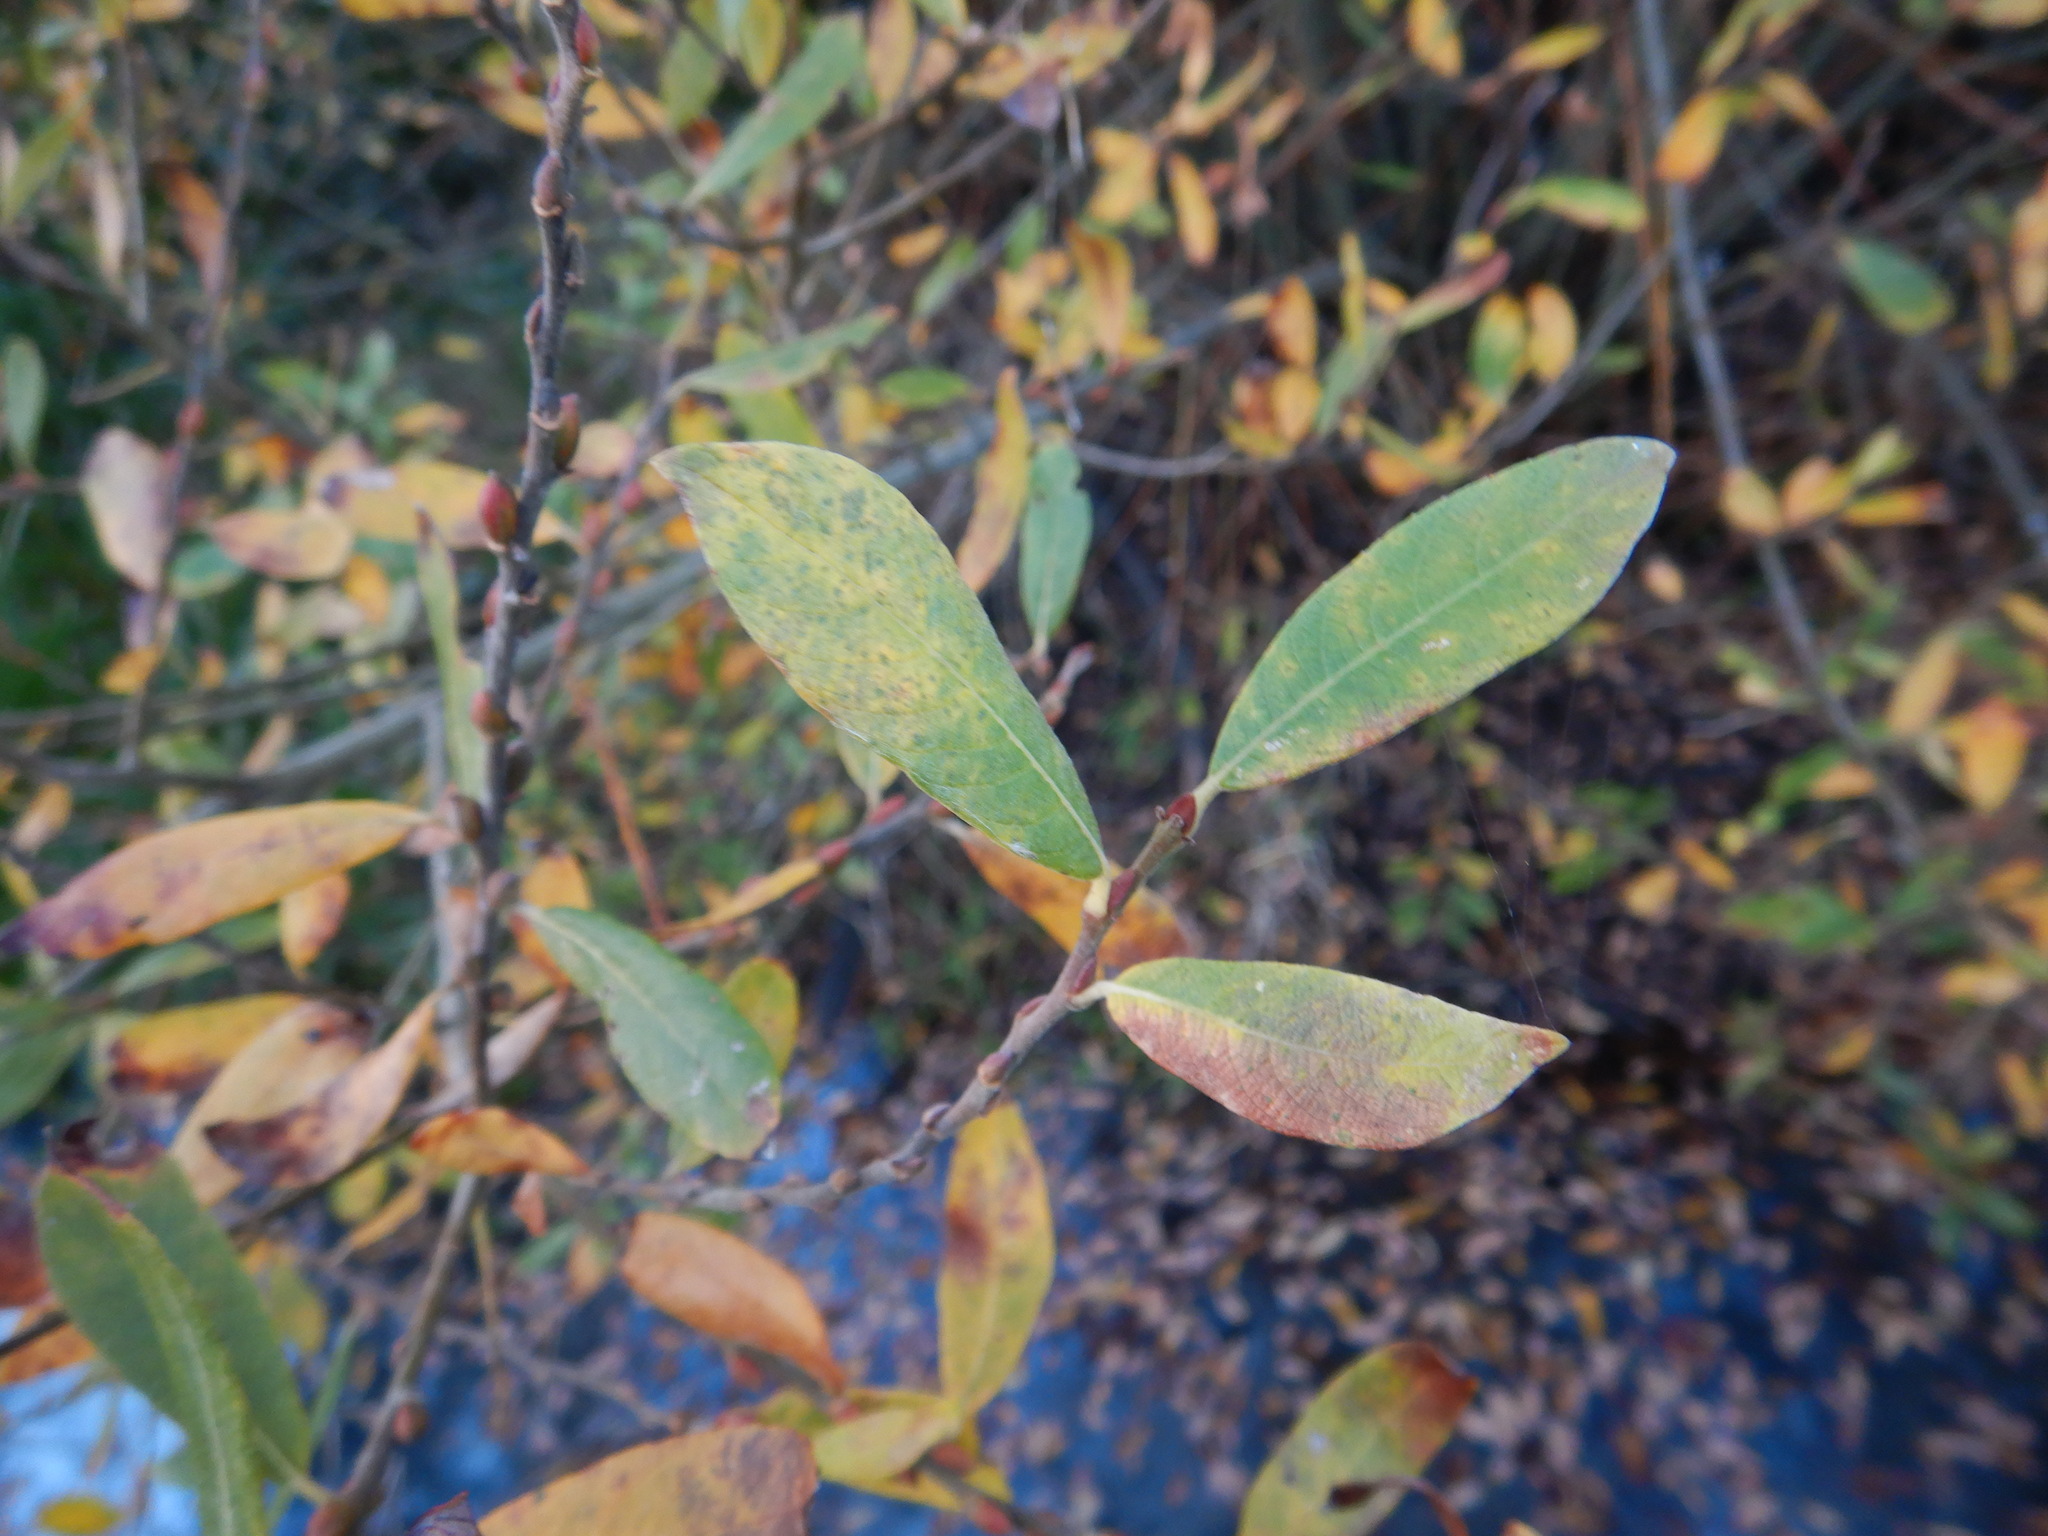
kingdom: Plantae
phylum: Tracheophyta
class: Magnoliopsida
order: Malpighiales
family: Salicaceae
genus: Salix
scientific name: Salix atrocinerea
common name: Rusty willow
